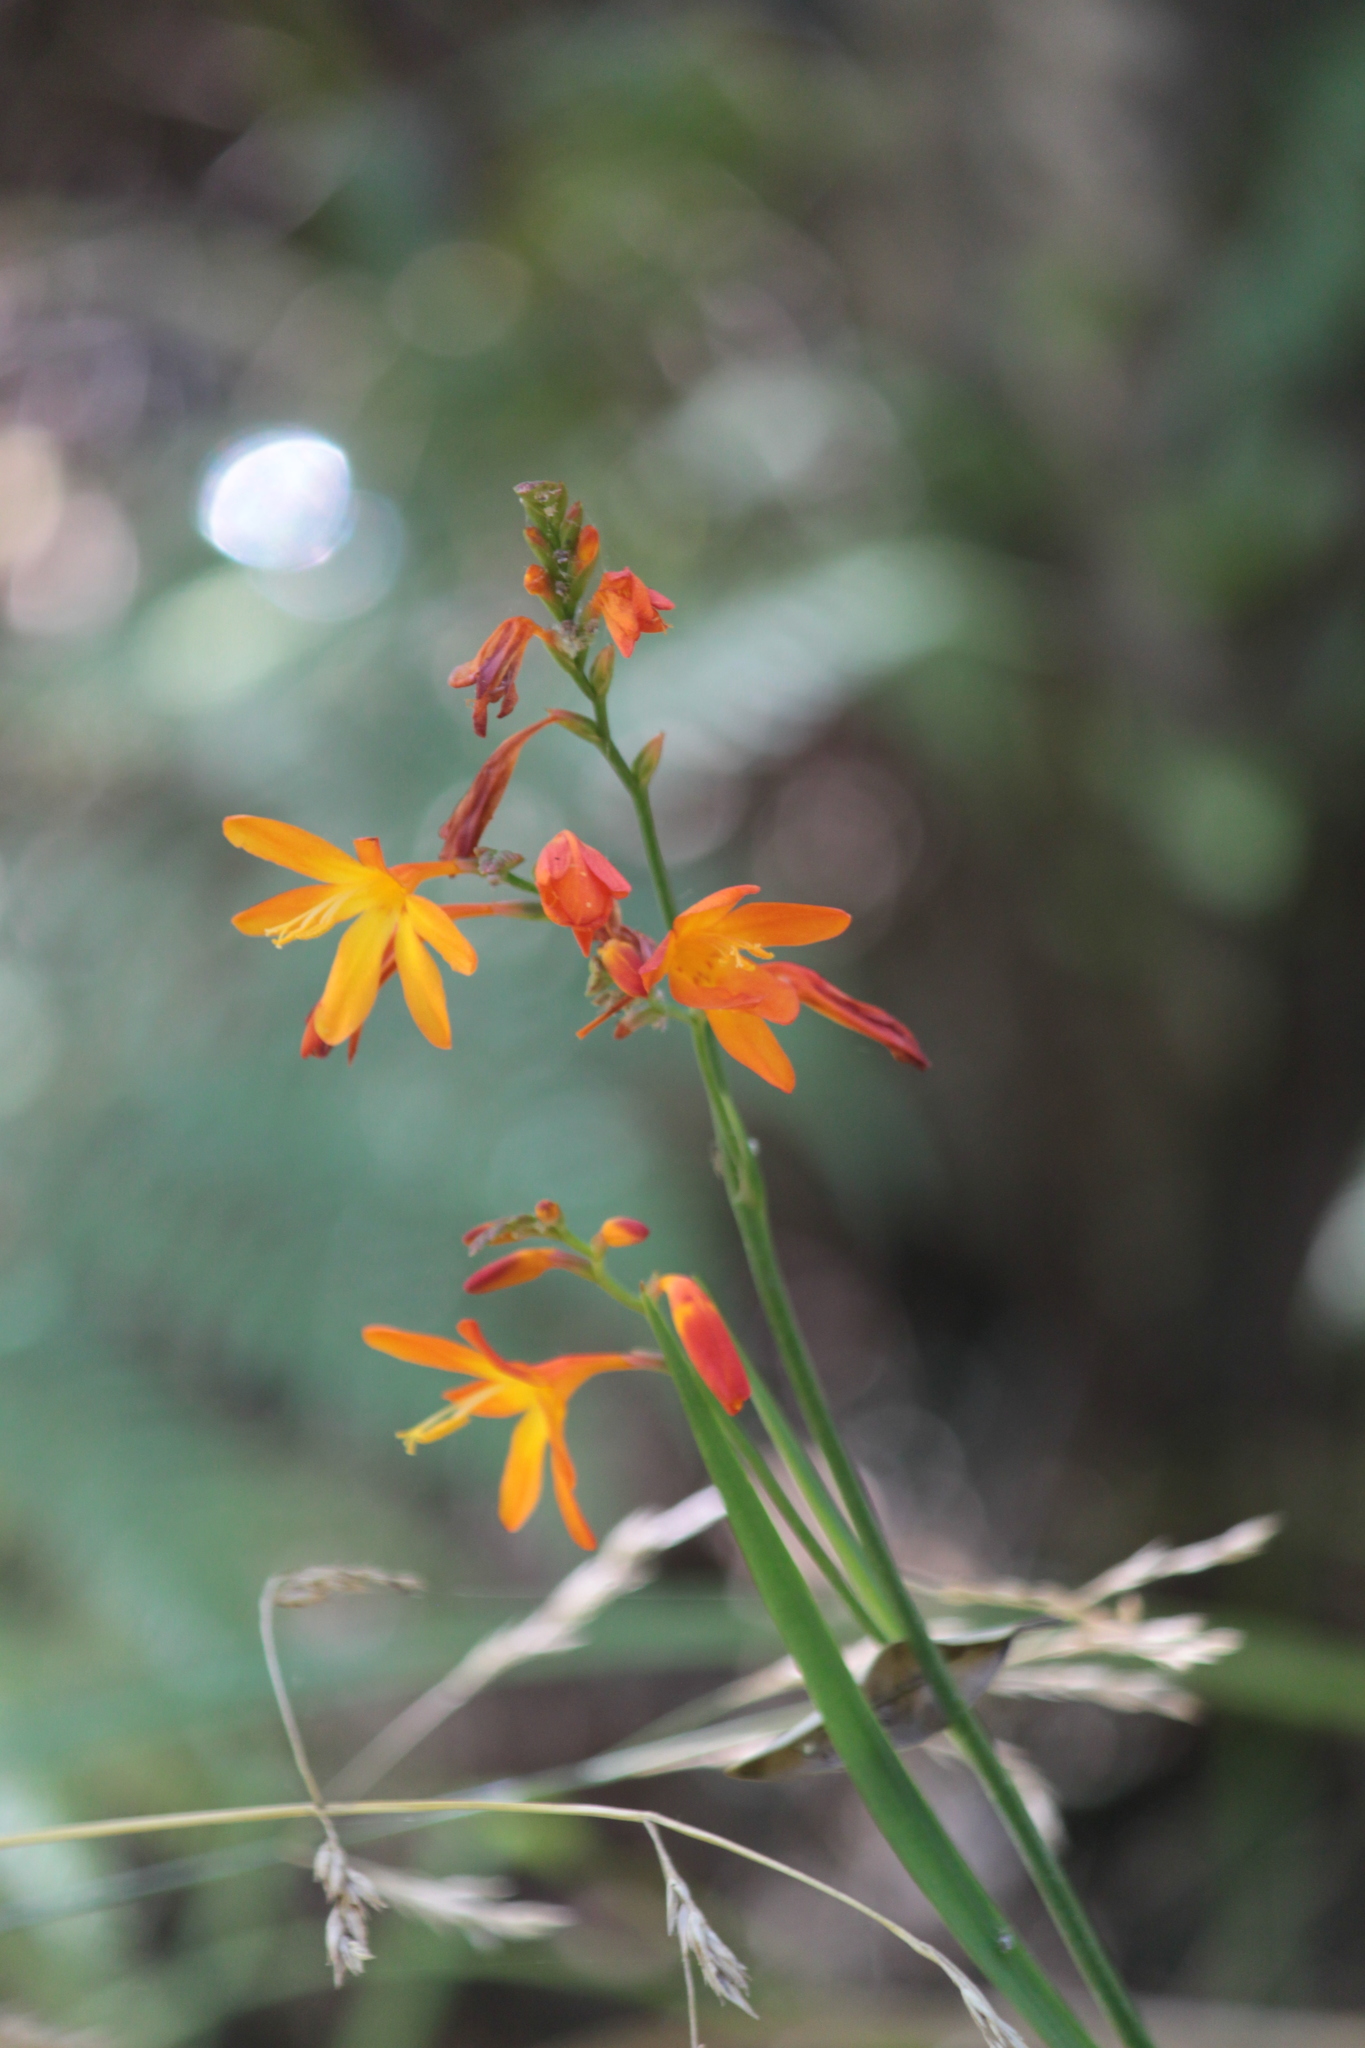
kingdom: Plantae
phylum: Tracheophyta
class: Liliopsida
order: Asparagales
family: Iridaceae
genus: Crocosmia
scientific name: Crocosmia crocosmiiflora
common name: Montbretia
